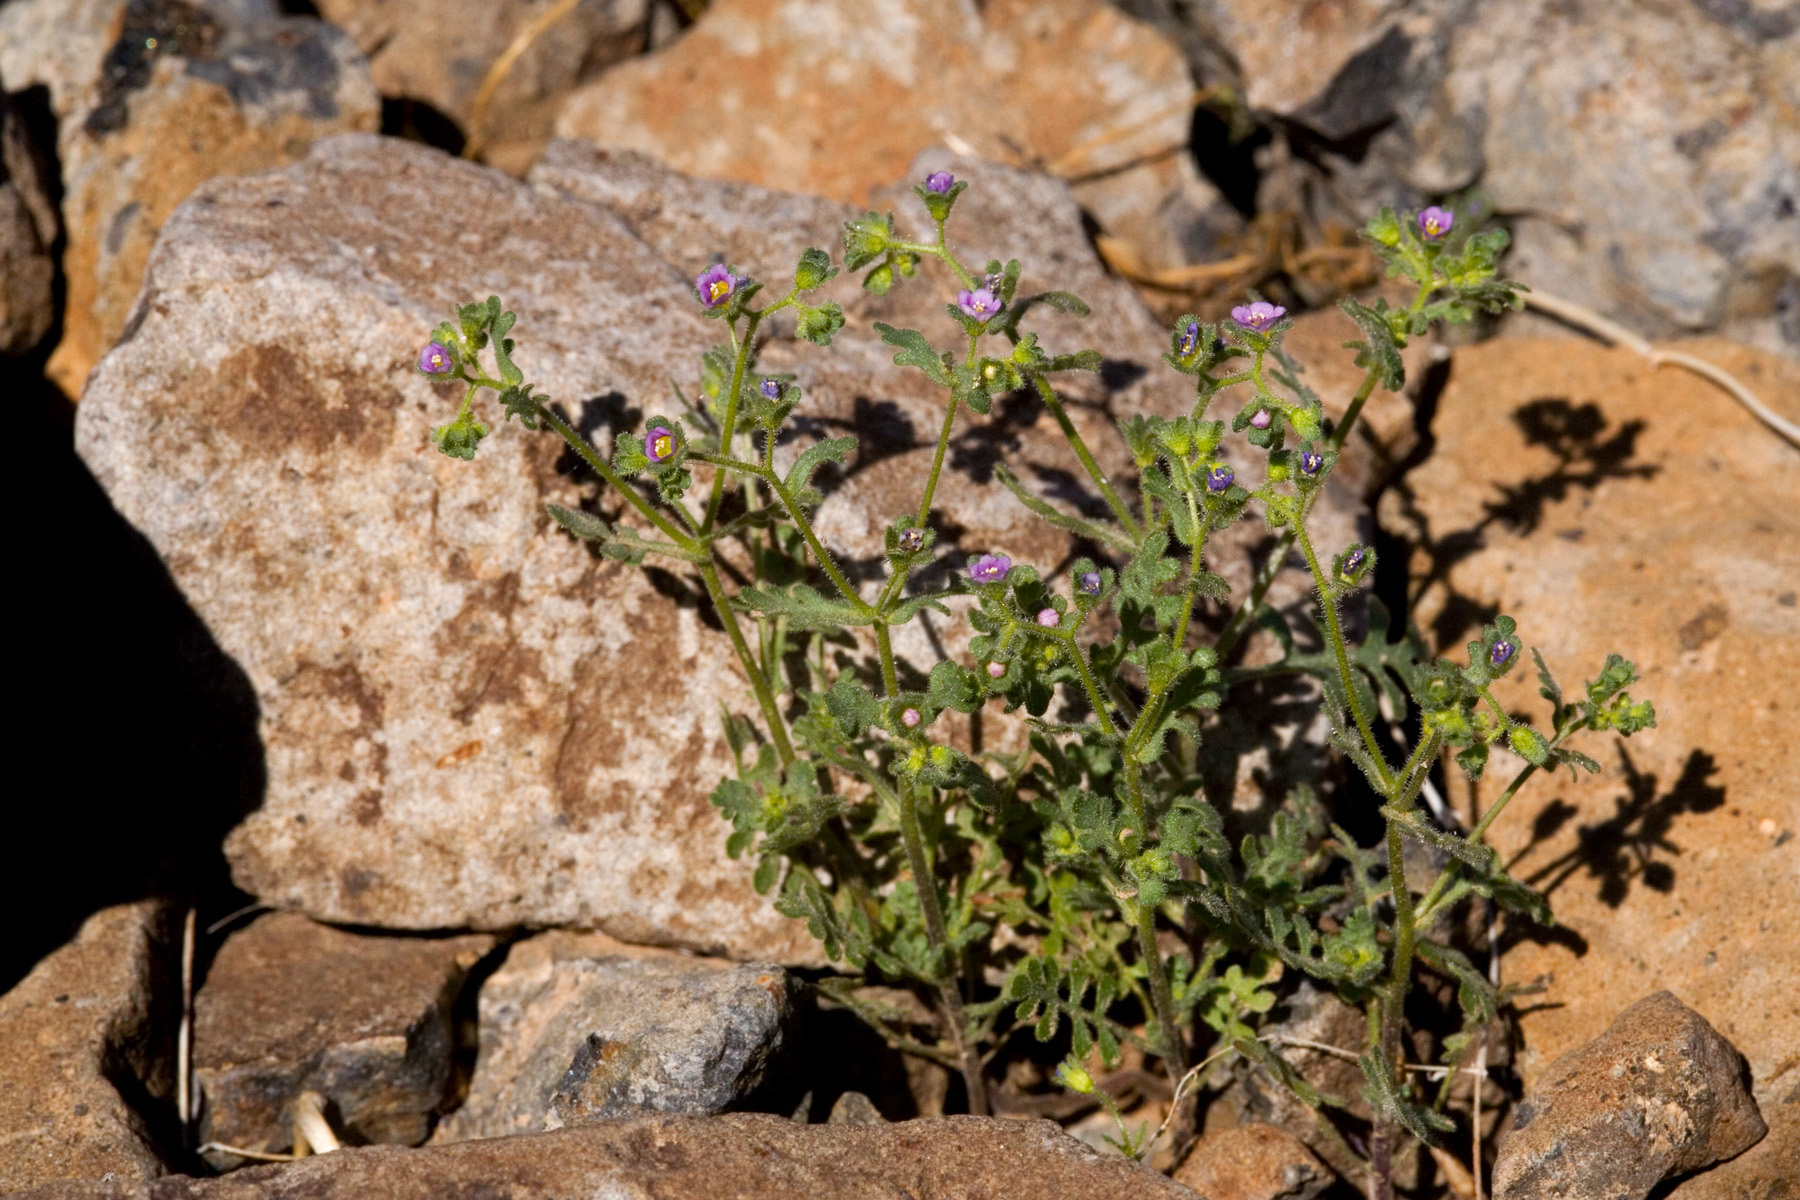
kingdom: Plantae
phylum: Tracheophyta
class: Magnoliopsida
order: Boraginales
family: Hydrophyllaceae
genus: Eucrypta
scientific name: Eucrypta micrantha
